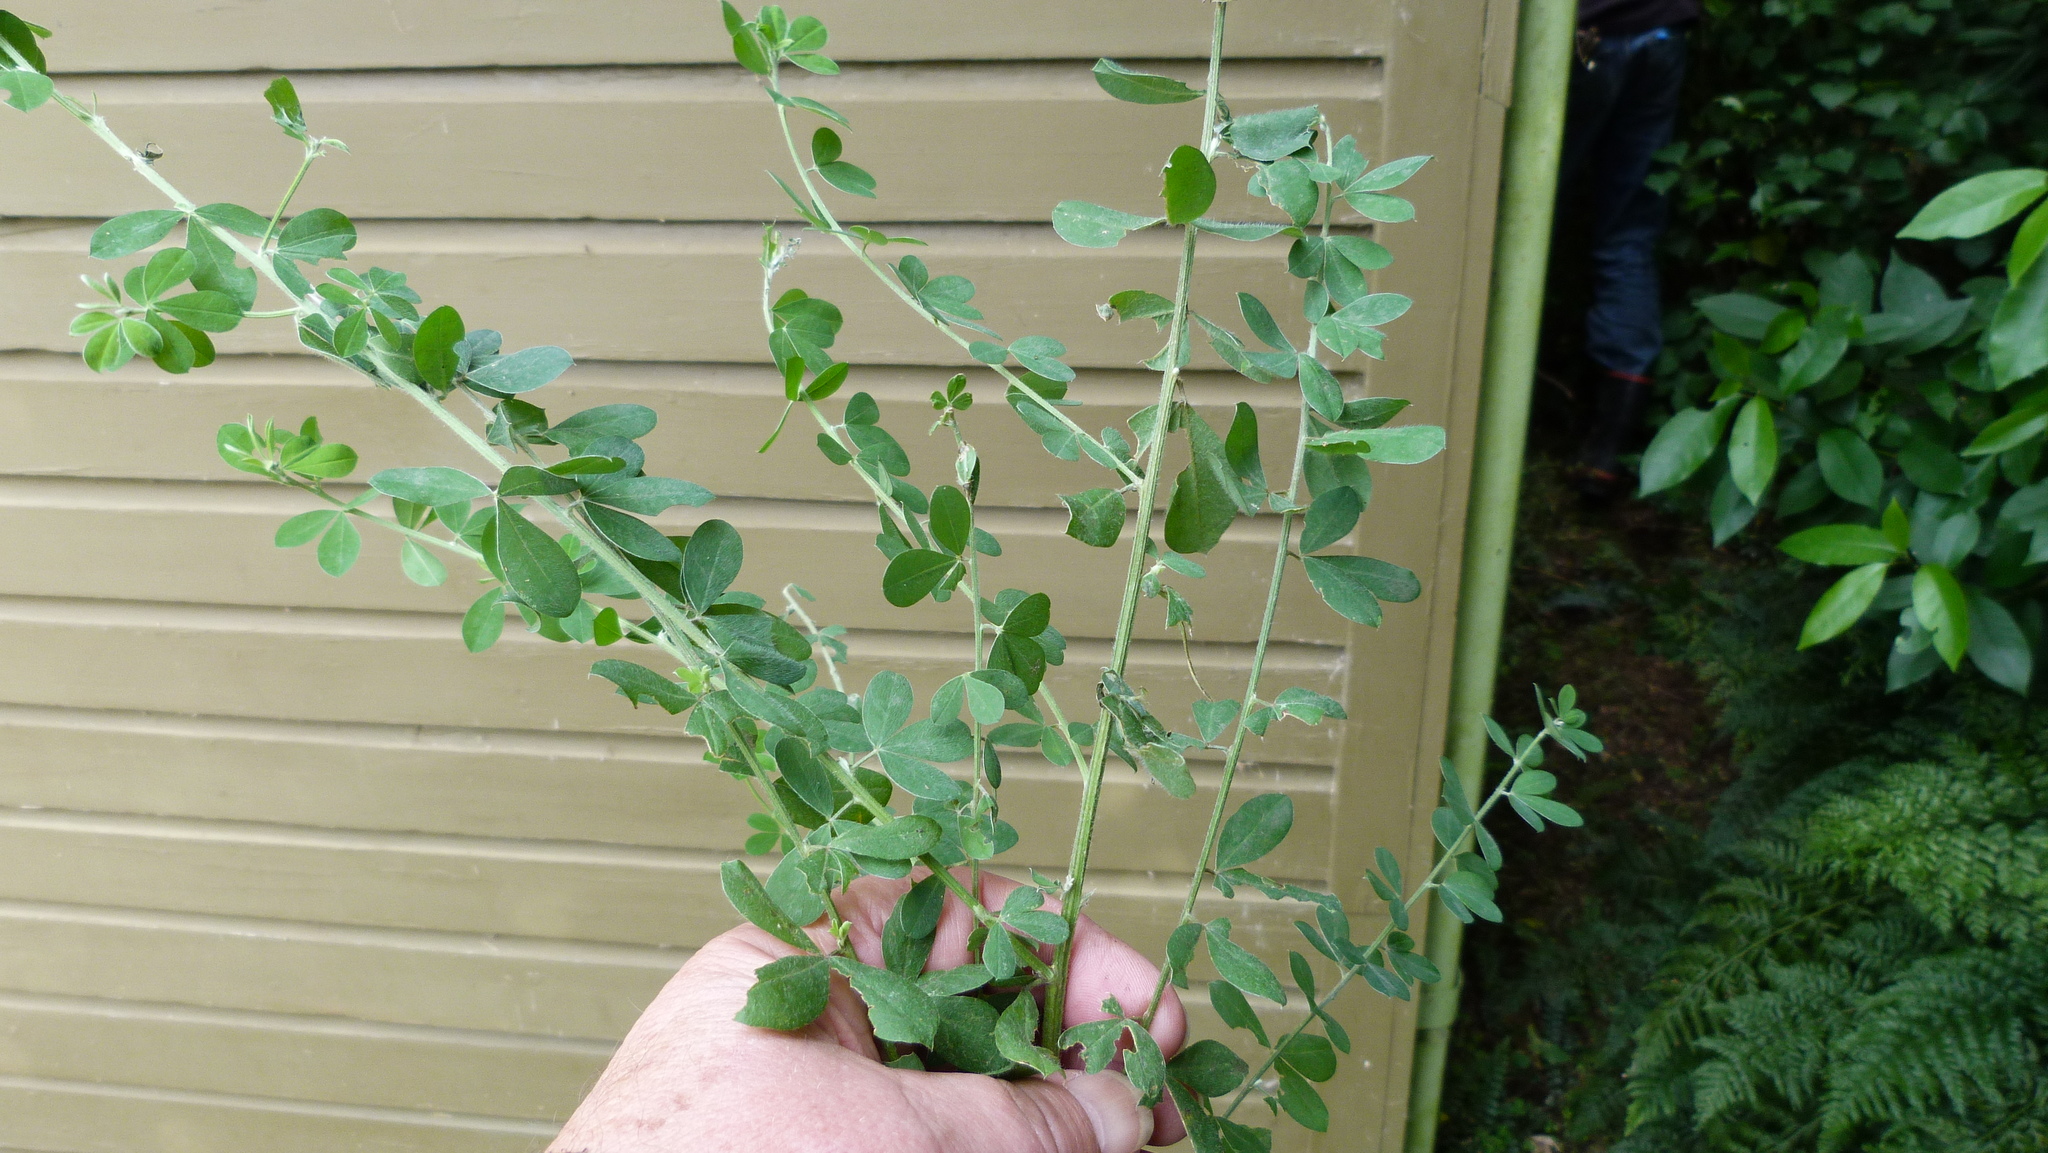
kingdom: Plantae
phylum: Tracheophyta
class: Magnoliopsida
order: Fabales
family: Fabaceae
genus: Genista
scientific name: Genista monspessulana
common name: Montpellier broom
